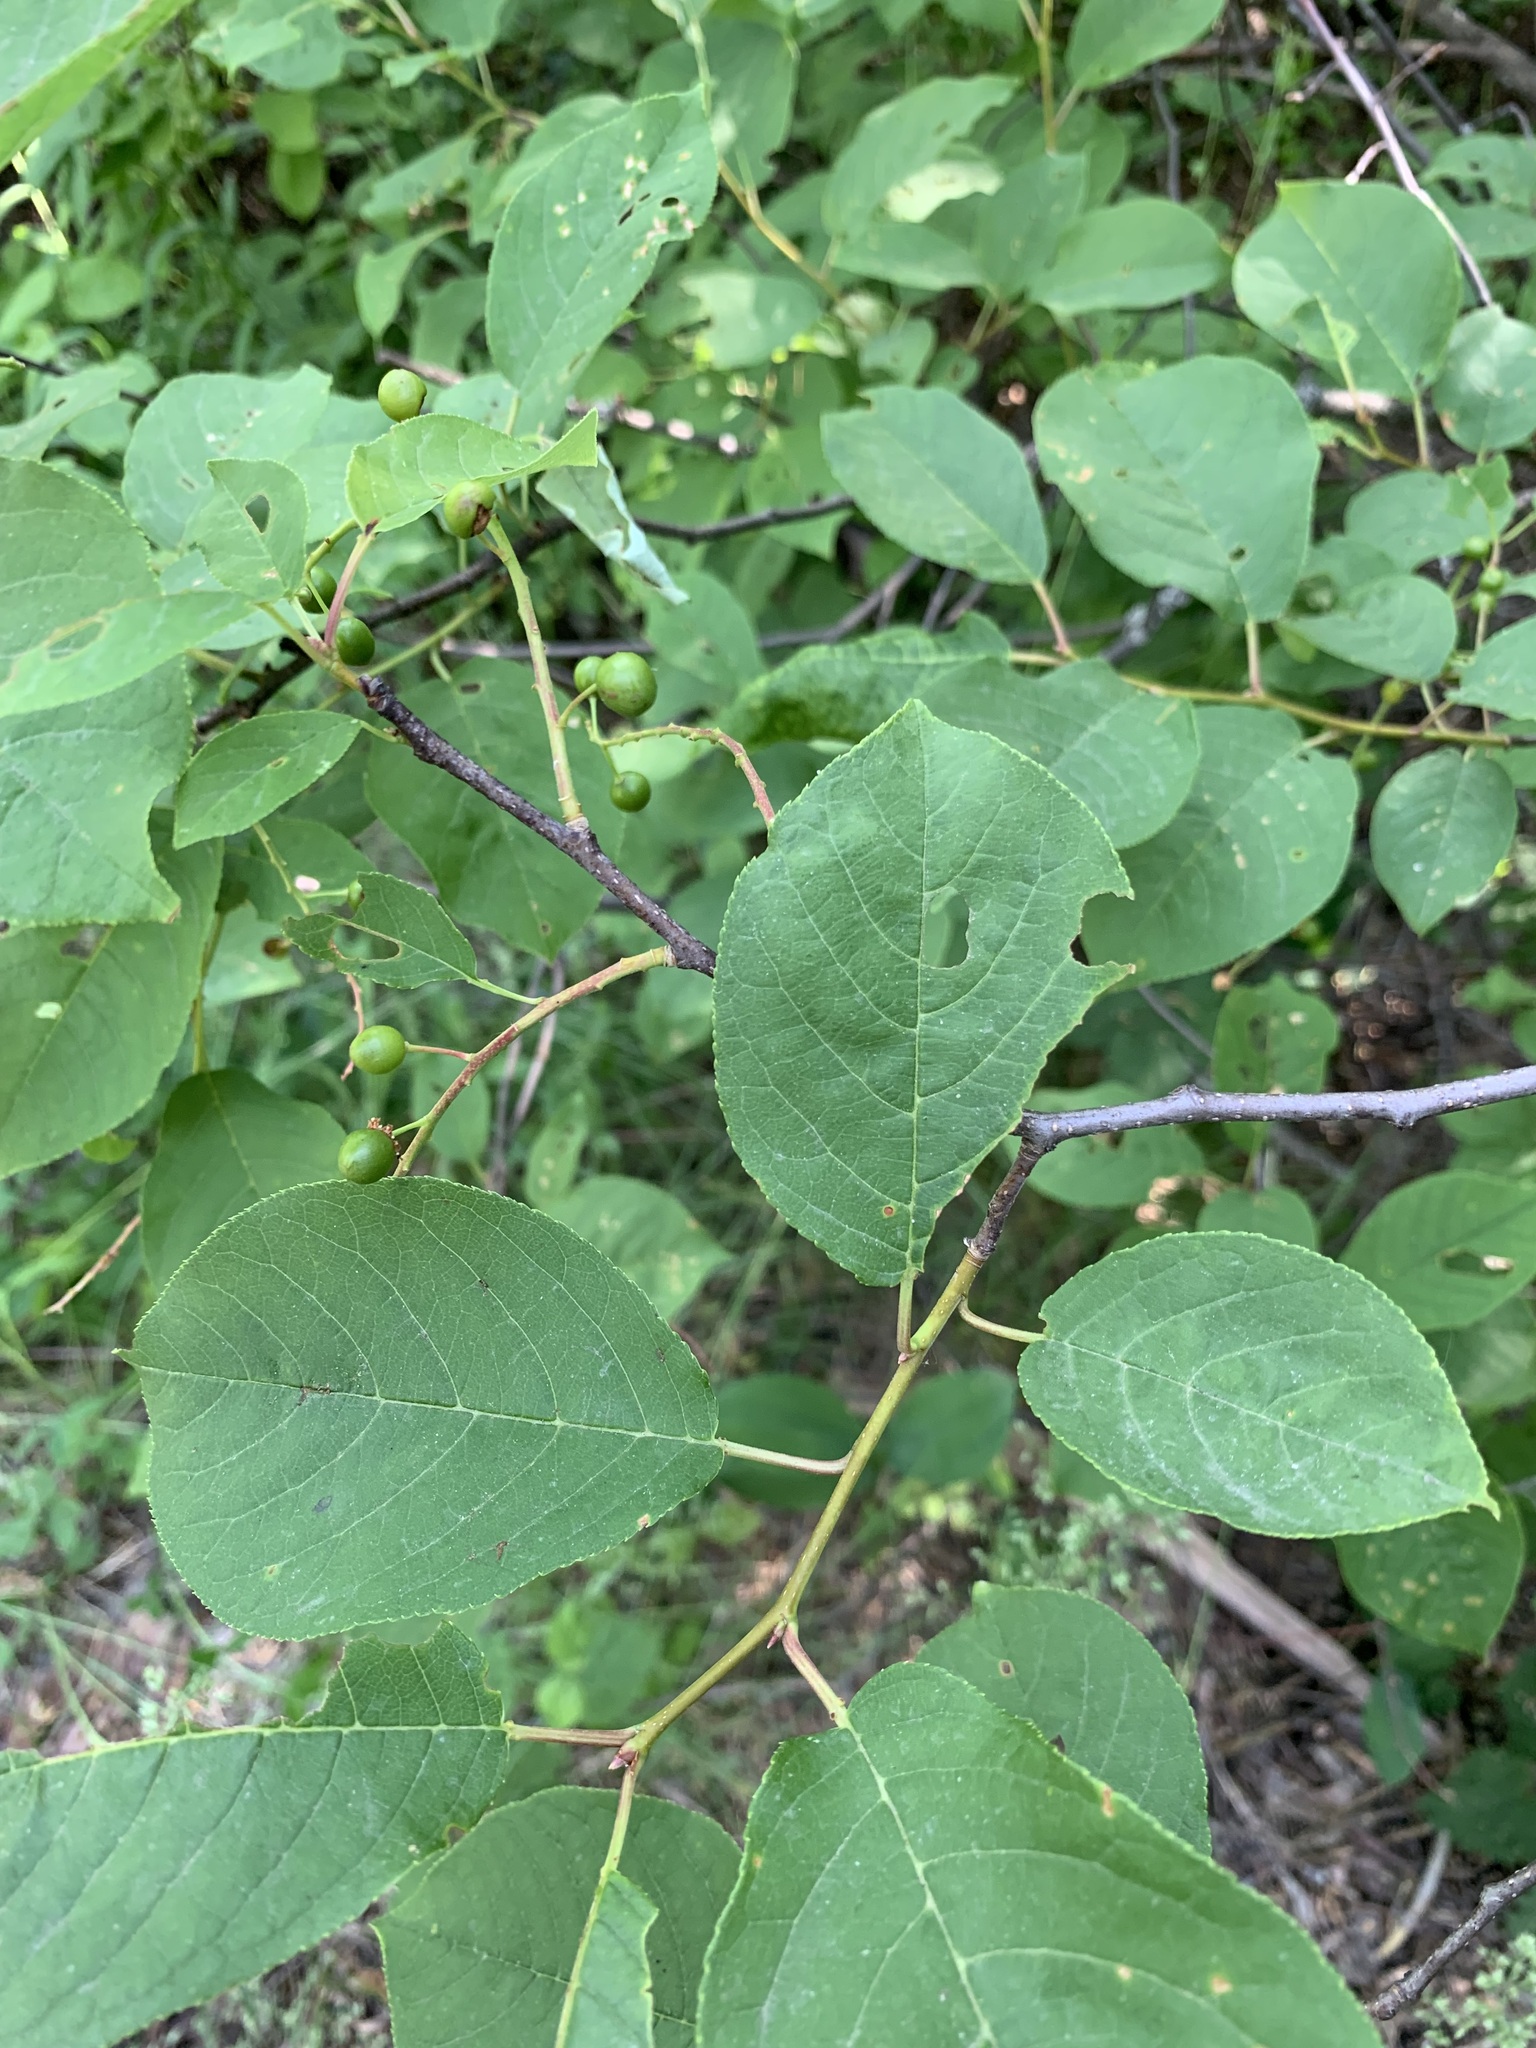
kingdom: Plantae
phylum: Tracheophyta
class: Magnoliopsida
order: Rosales
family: Rosaceae
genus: Prunus
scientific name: Prunus padus
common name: Bird cherry
